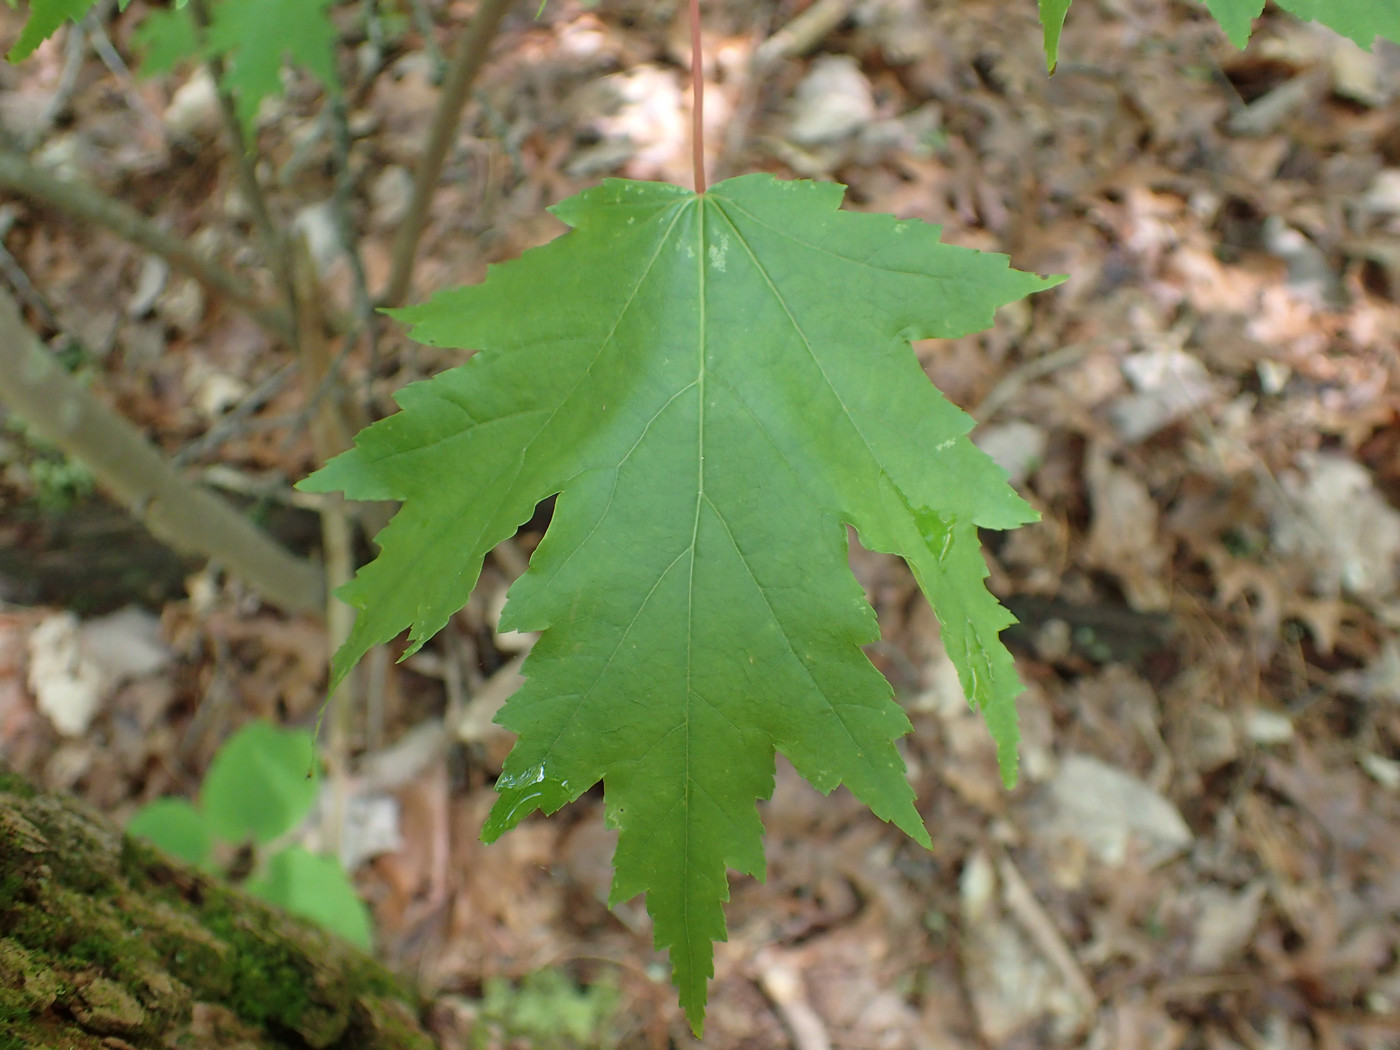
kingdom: Plantae
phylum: Tracheophyta
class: Magnoliopsida
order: Sapindales
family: Sapindaceae
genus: Acer
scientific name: Acer rubrum
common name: Red maple
